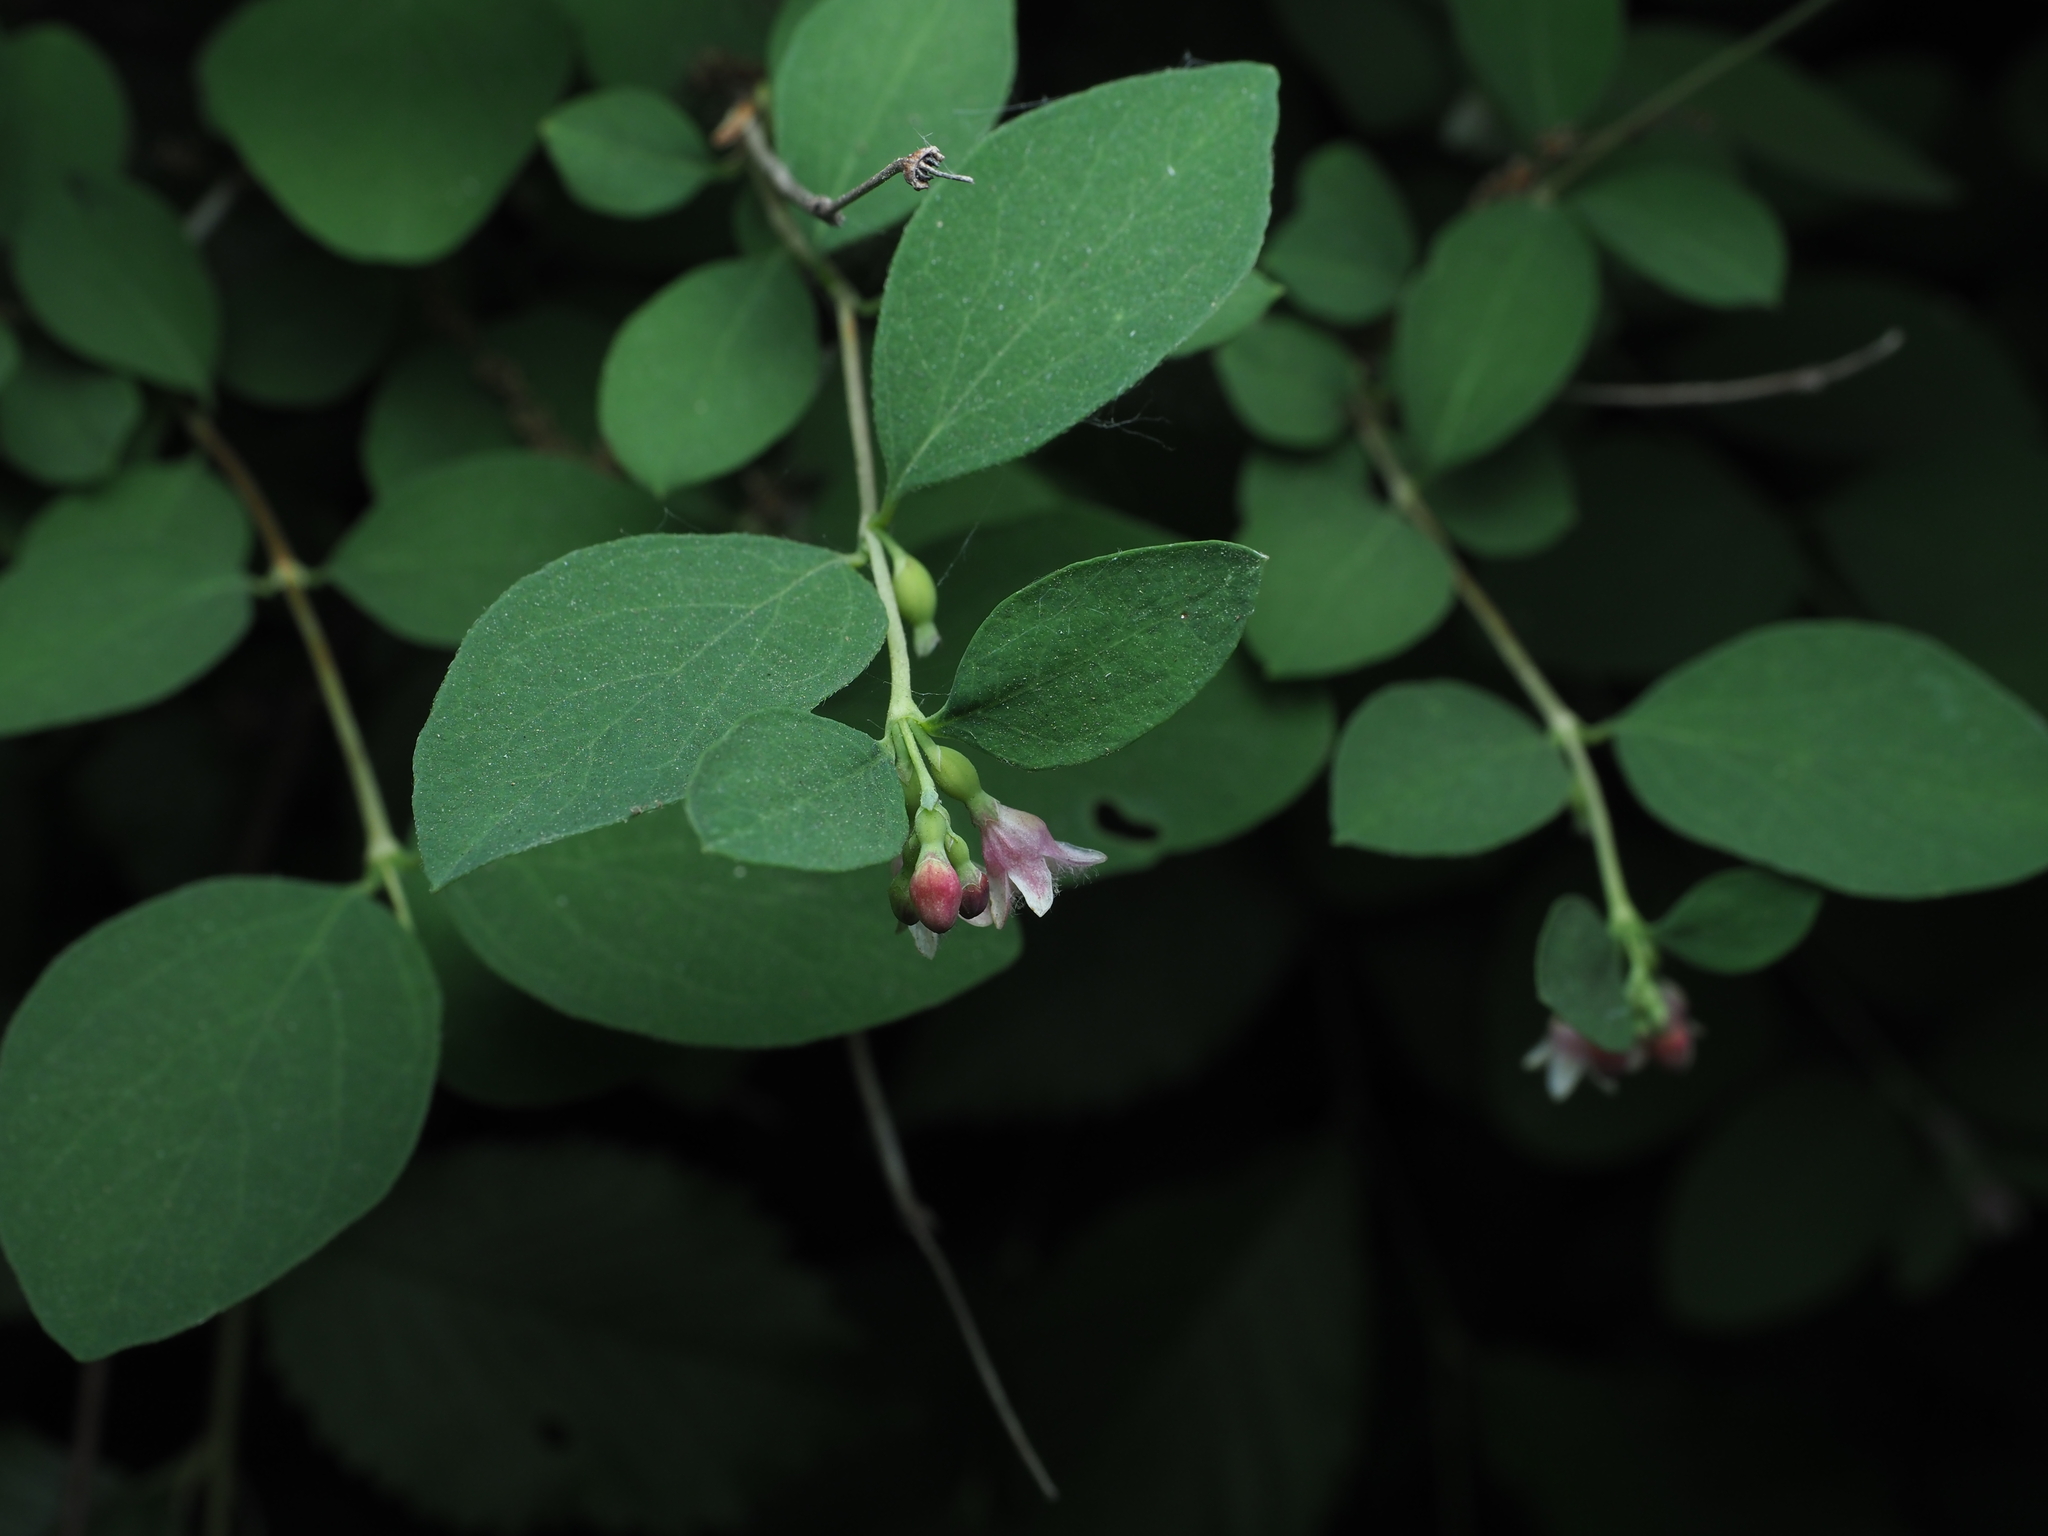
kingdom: Plantae
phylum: Tracheophyta
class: Magnoliopsida
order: Dipsacales
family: Caprifoliaceae
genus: Symphoricarpos
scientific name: Symphoricarpos albus
